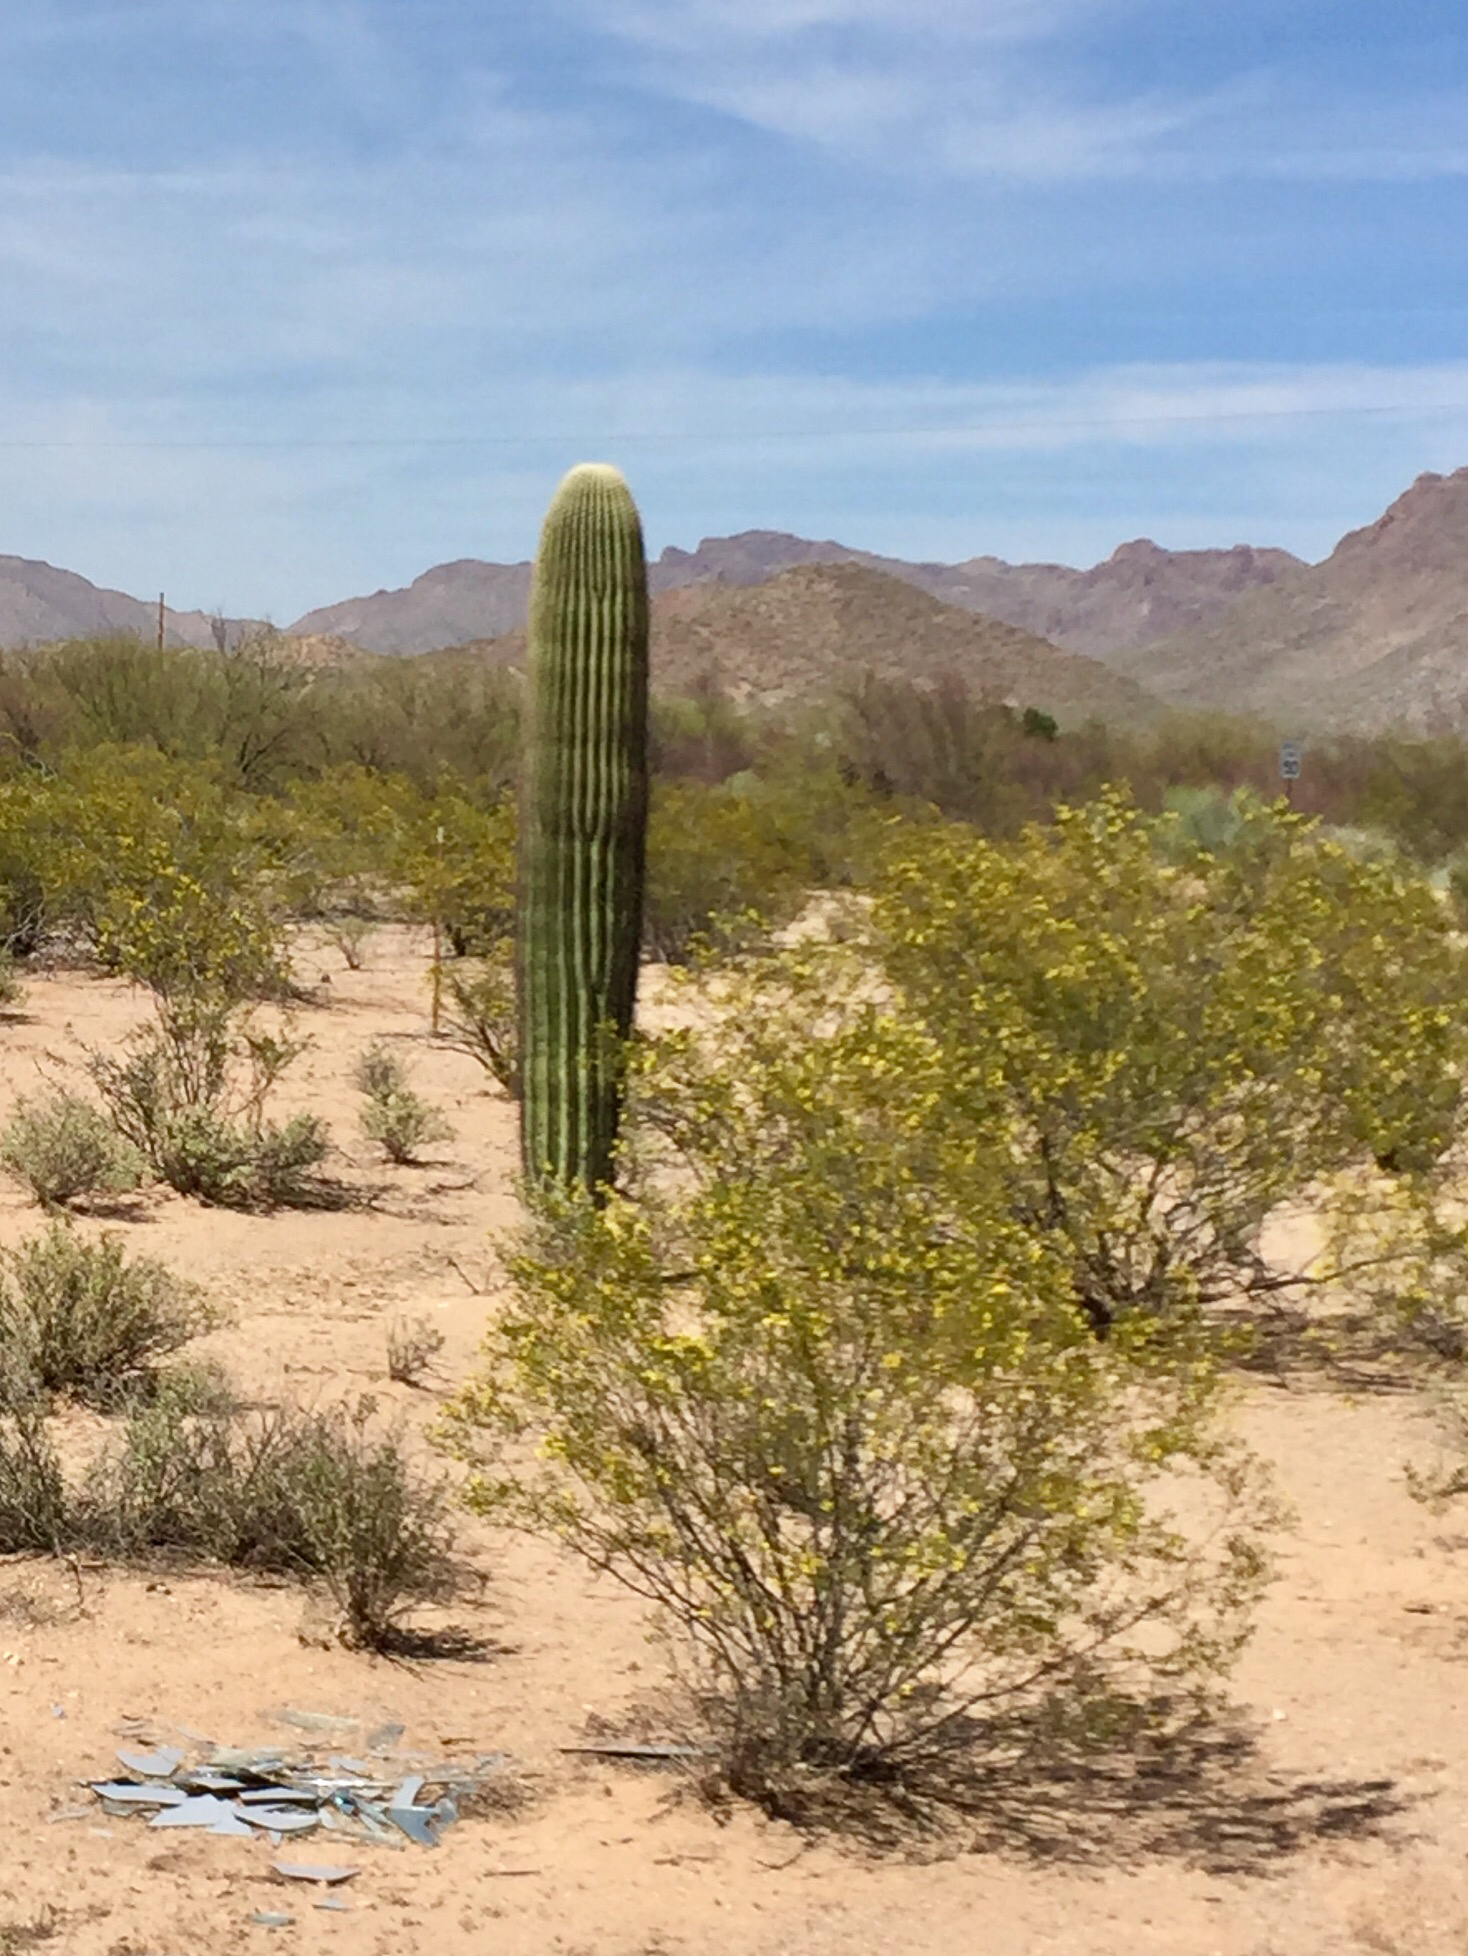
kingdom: Plantae
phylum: Tracheophyta
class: Magnoliopsida
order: Caryophyllales
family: Cactaceae
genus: Carnegiea
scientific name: Carnegiea gigantea
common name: Saguaro
